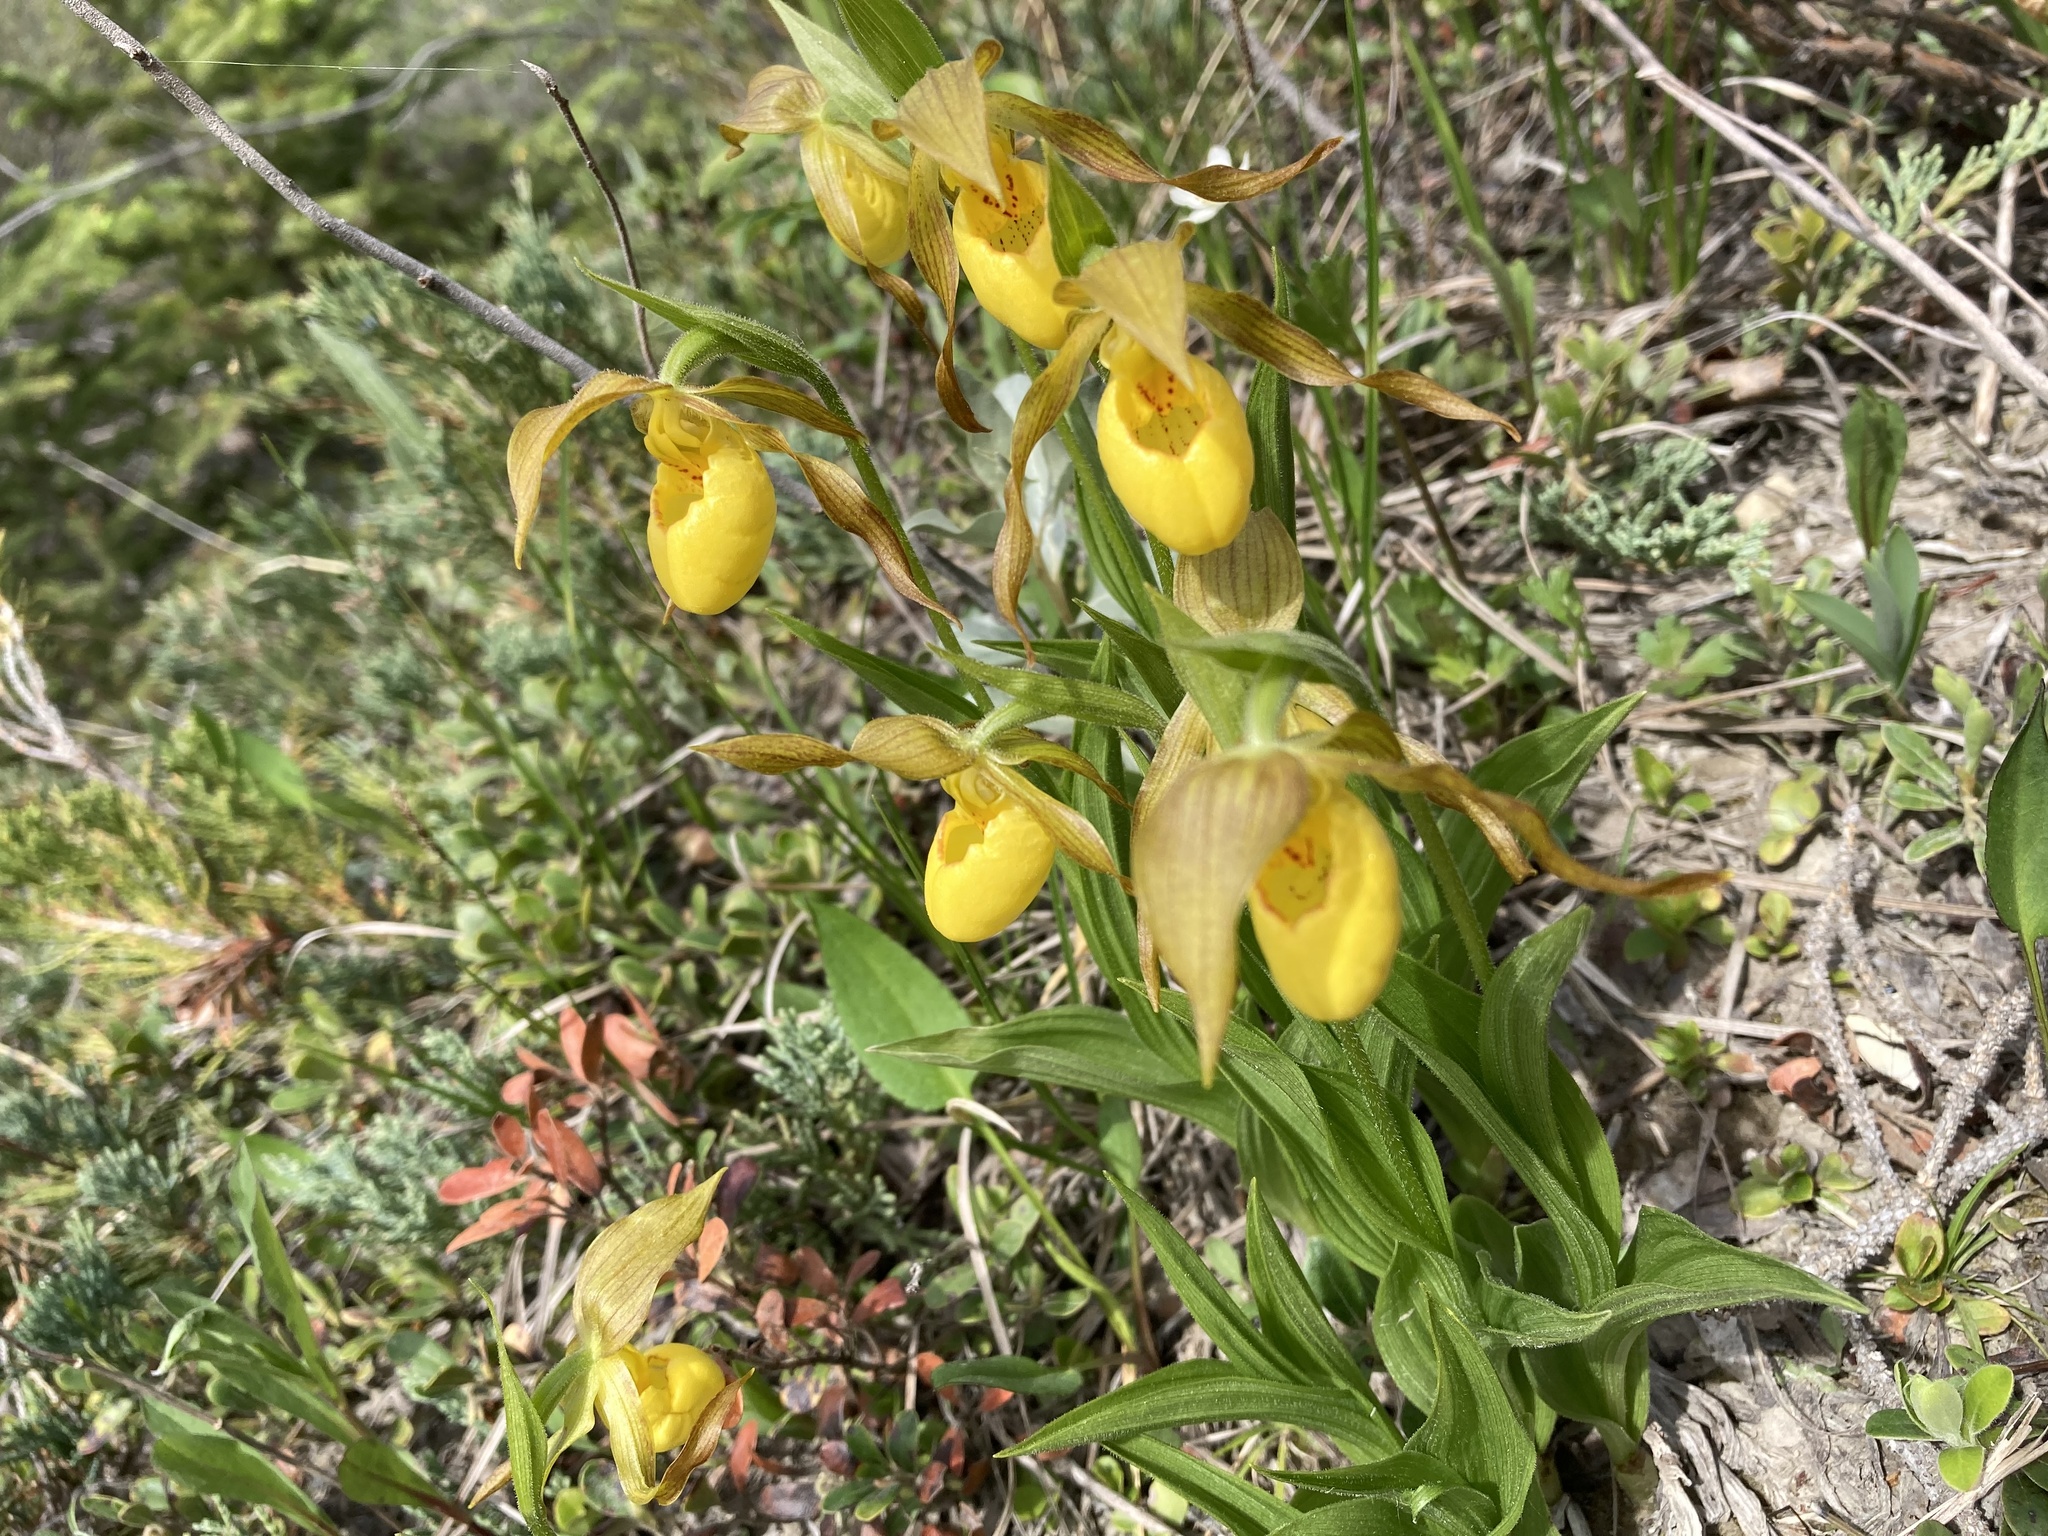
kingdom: Plantae
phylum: Tracheophyta
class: Liliopsida
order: Asparagales
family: Orchidaceae
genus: Cypripedium
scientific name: Cypripedium parviflorum
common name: American yellow lady's-slipper
